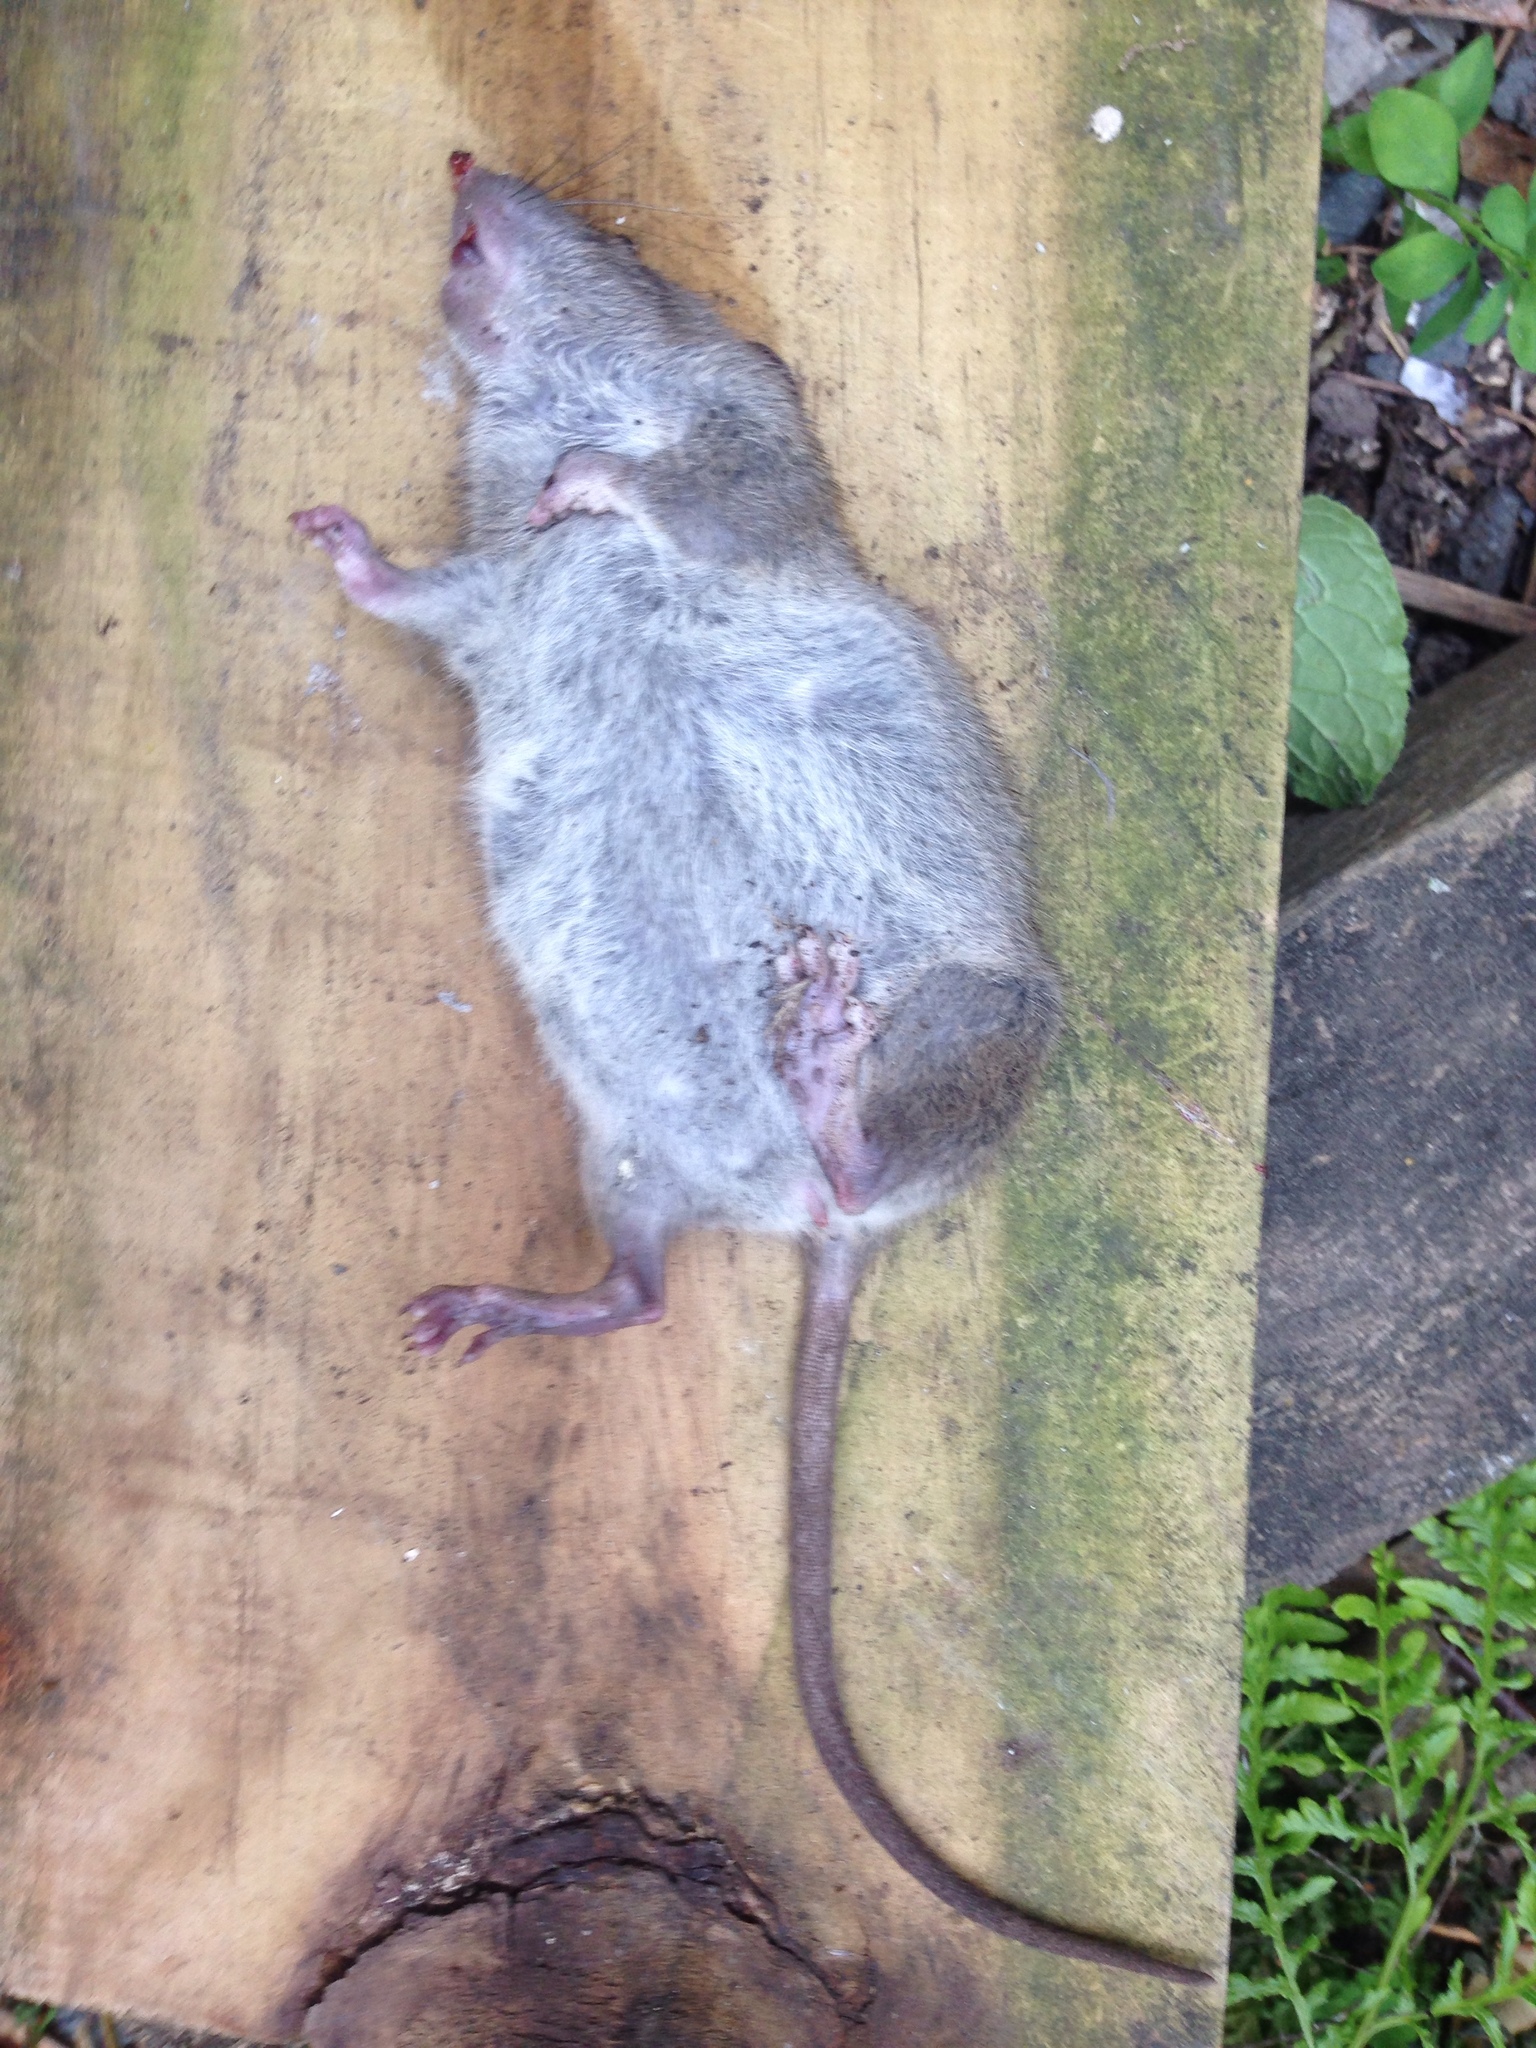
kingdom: Animalia
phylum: Chordata
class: Mammalia
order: Rodentia
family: Muridae
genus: Rattus
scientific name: Rattus norvegicus
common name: Brown rat
